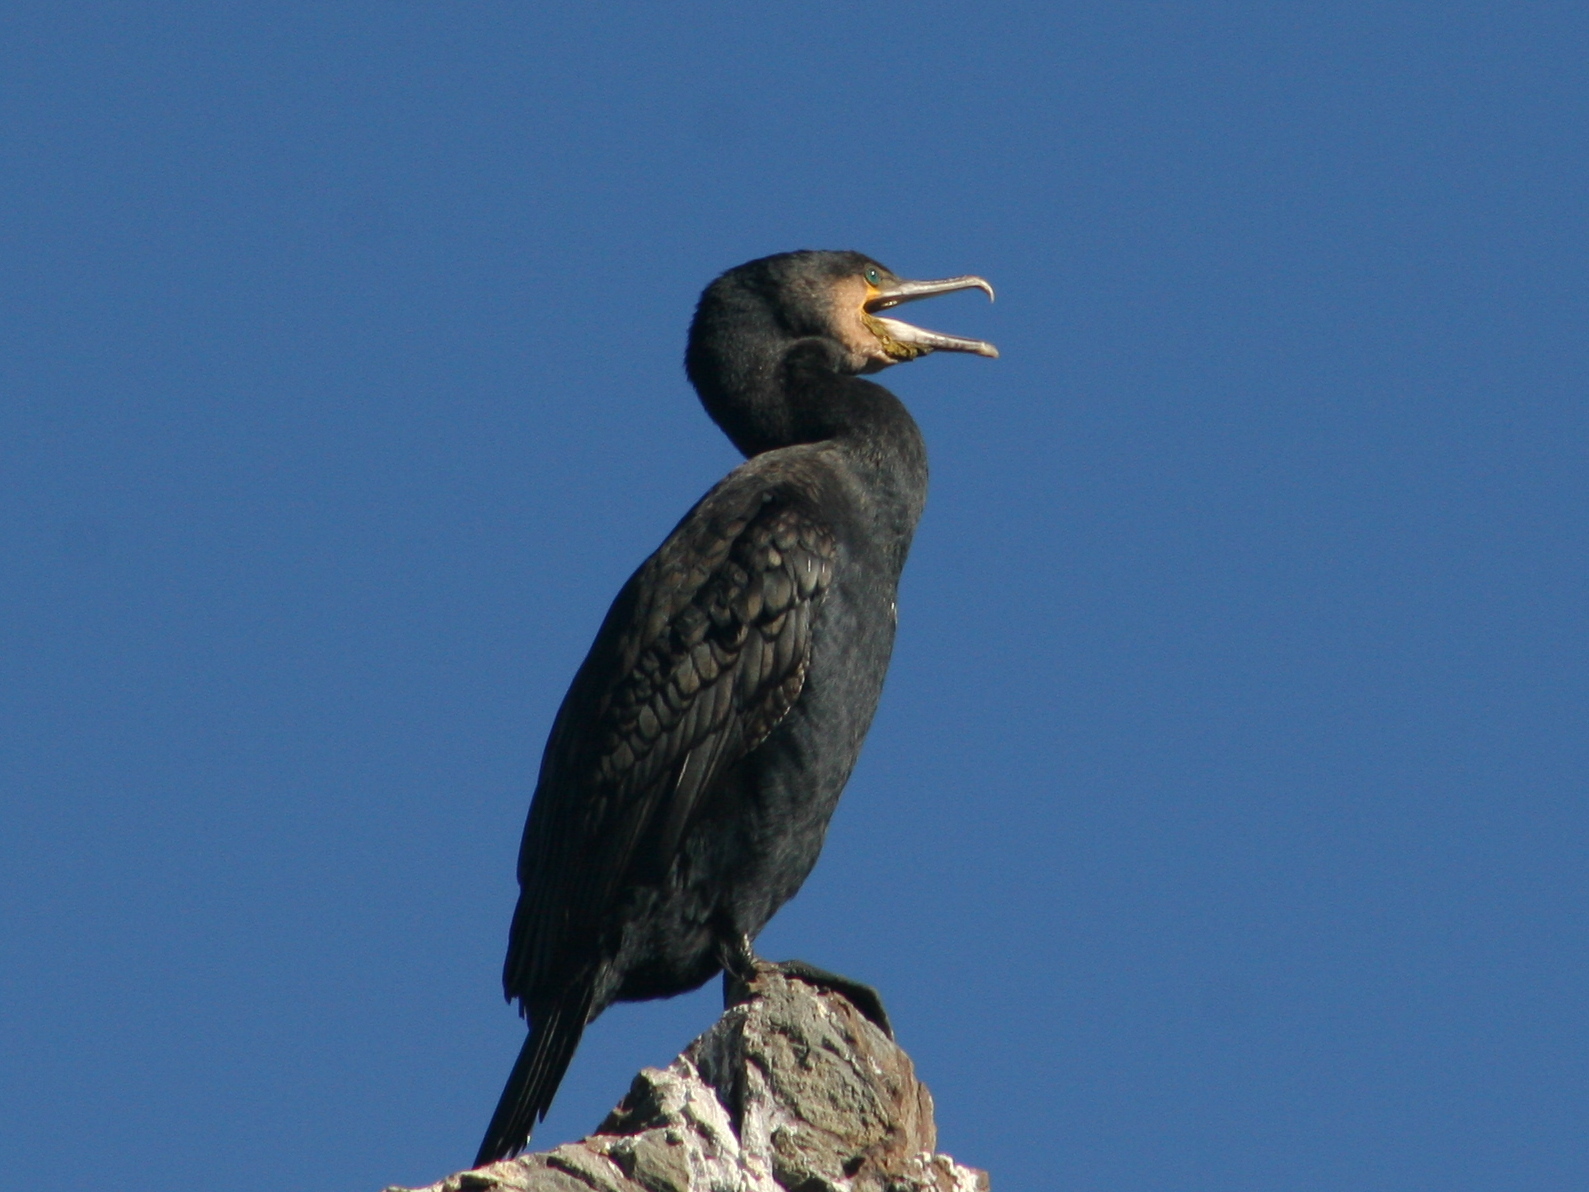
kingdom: Animalia
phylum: Chordata
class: Aves
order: Suliformes
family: Phalacrocoracidae
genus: Phalacrocorax
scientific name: Phalacrocorax carbo
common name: Great cormorant
